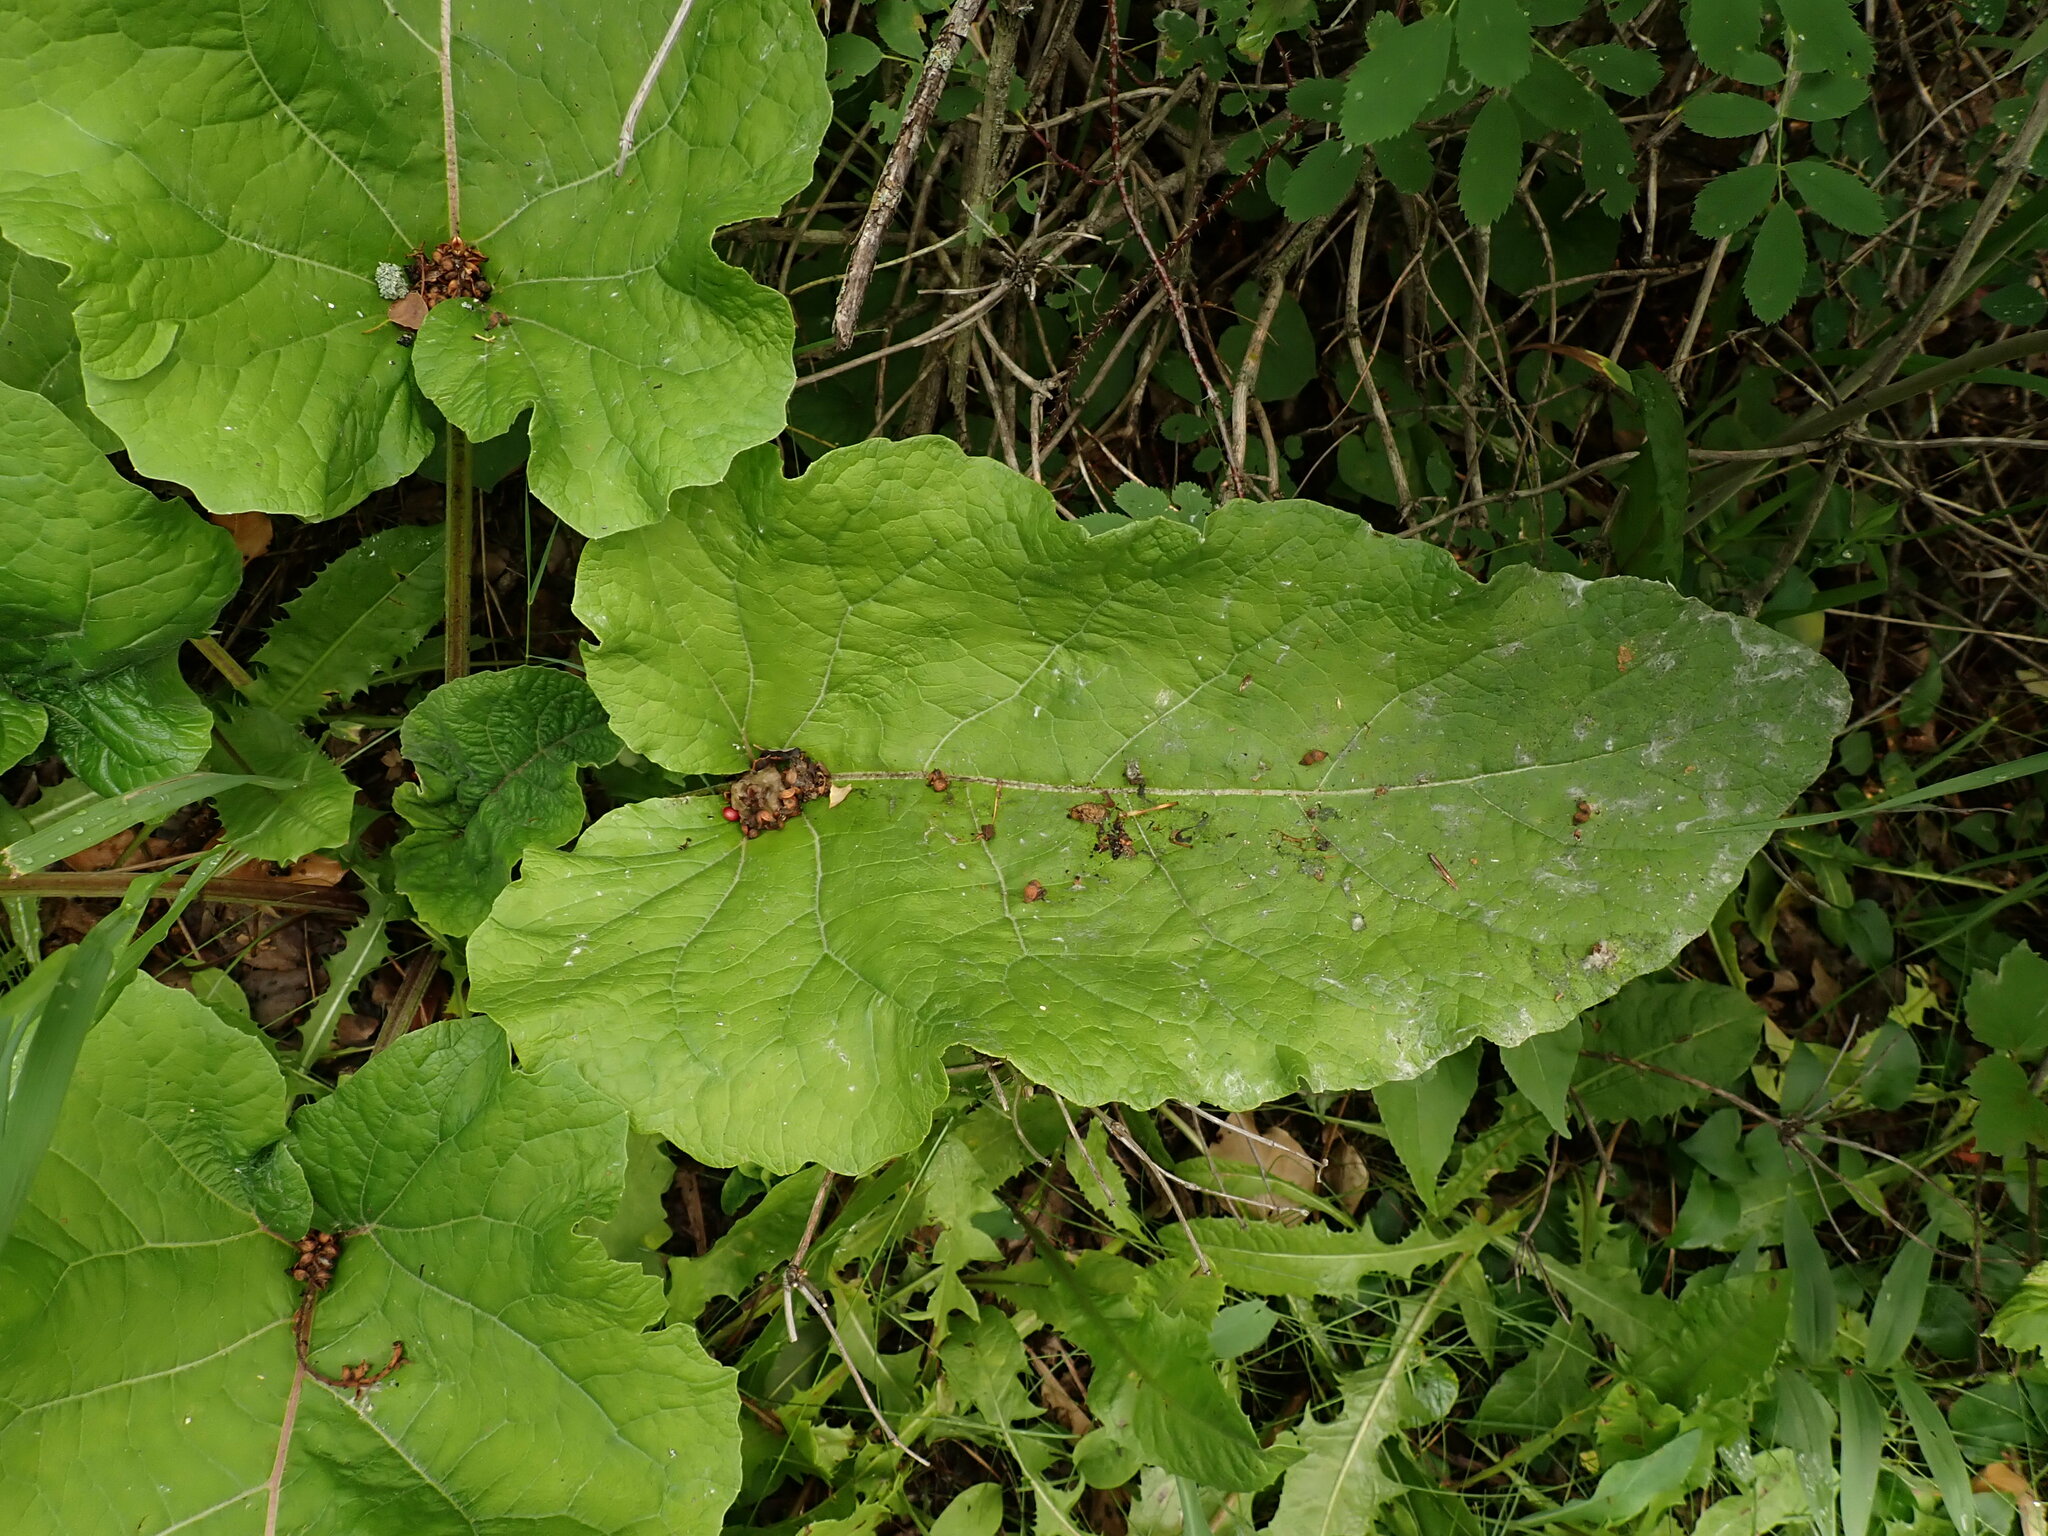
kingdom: Plantae
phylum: Tracheophyta
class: Magnoliopsida
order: Asterales
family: Asteraceae
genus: Arctium
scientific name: Arctium
